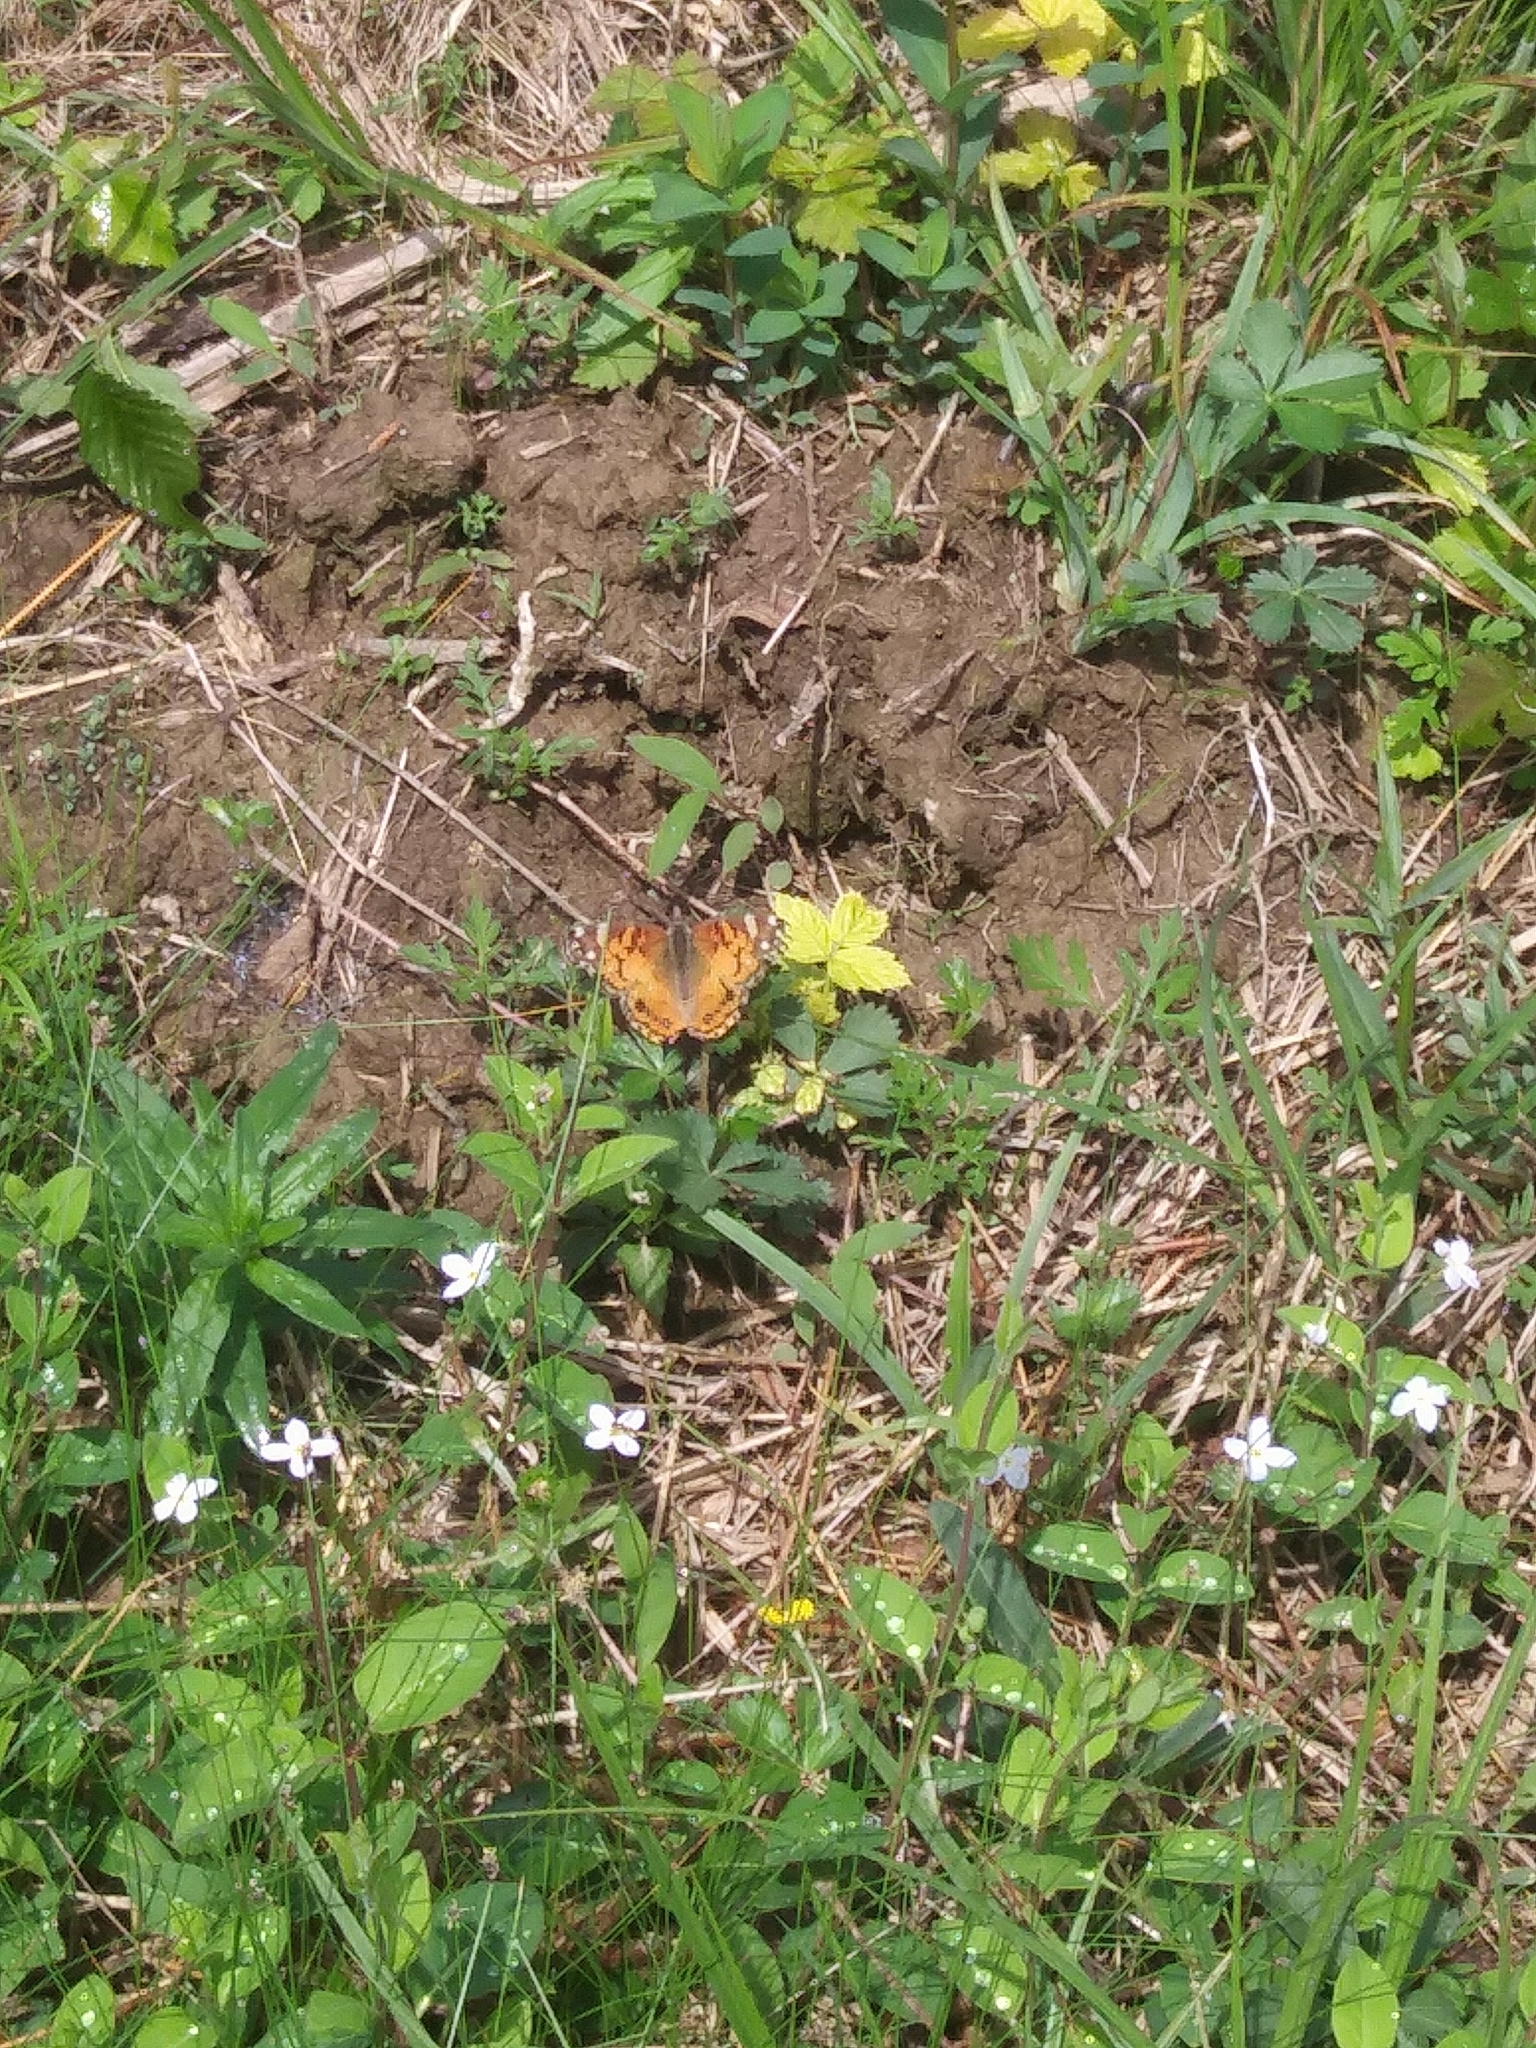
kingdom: Animalia
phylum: Arthropoda
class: Insecta
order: Lepidoptera
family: Nymphalidae
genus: Vanessa
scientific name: Vanessa virginiensis
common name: American lady
